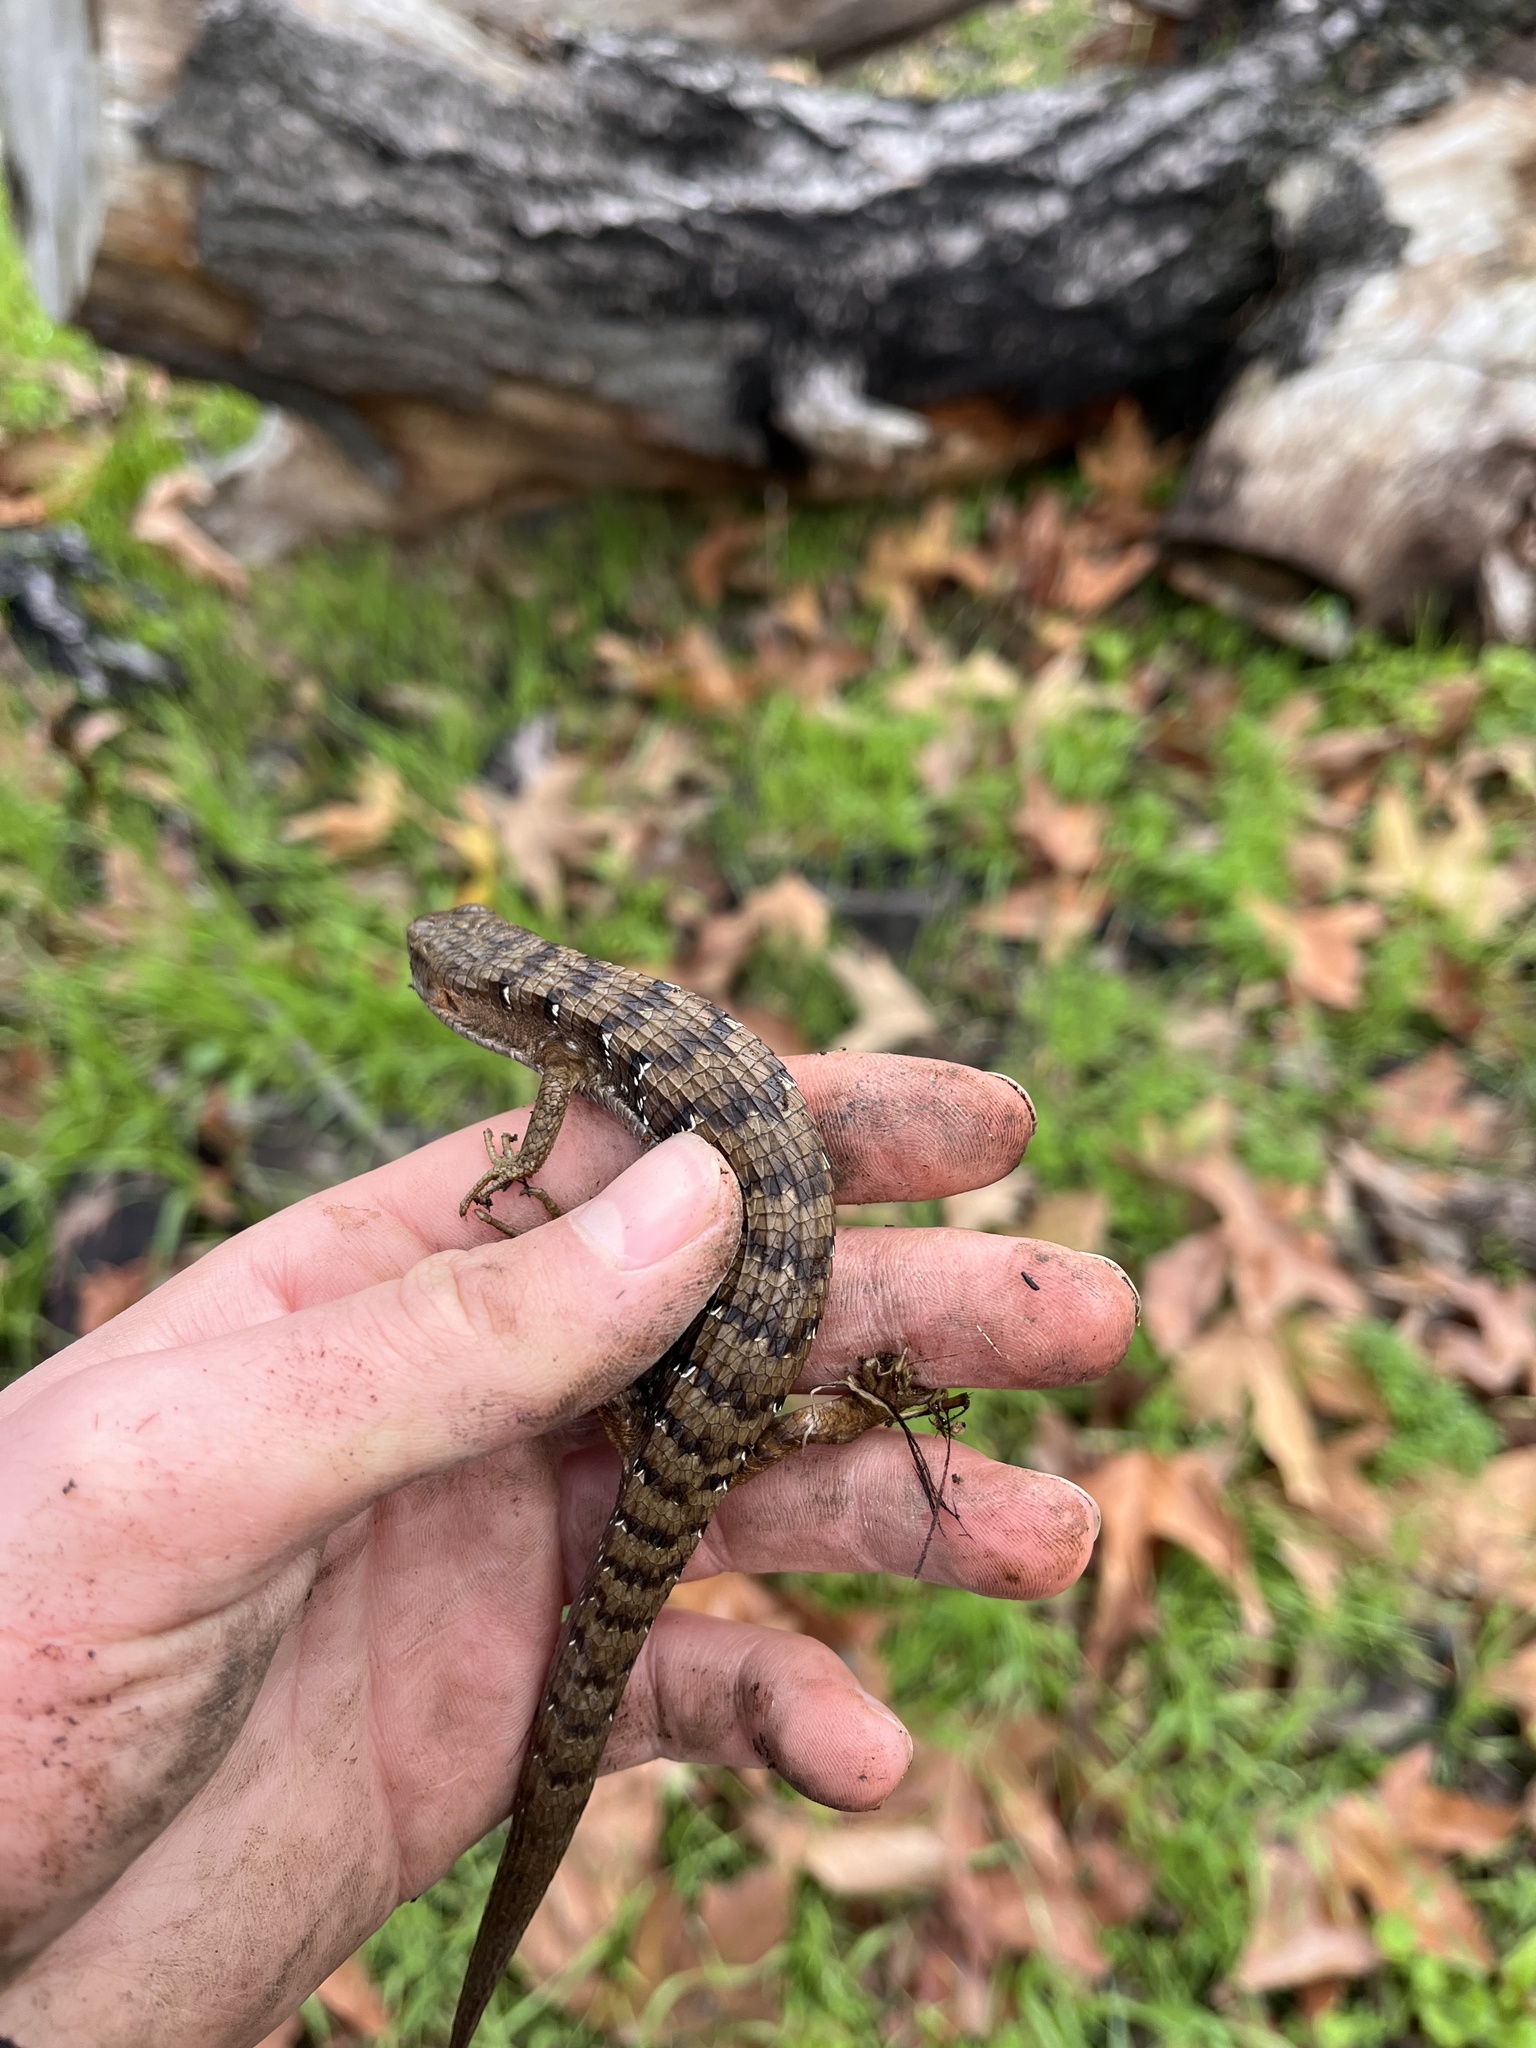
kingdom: Animalia
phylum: Chordata
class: Squamata
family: Anguidae
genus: Elgaria
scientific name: Elgaria multicarinata
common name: Southern alligator lizard
